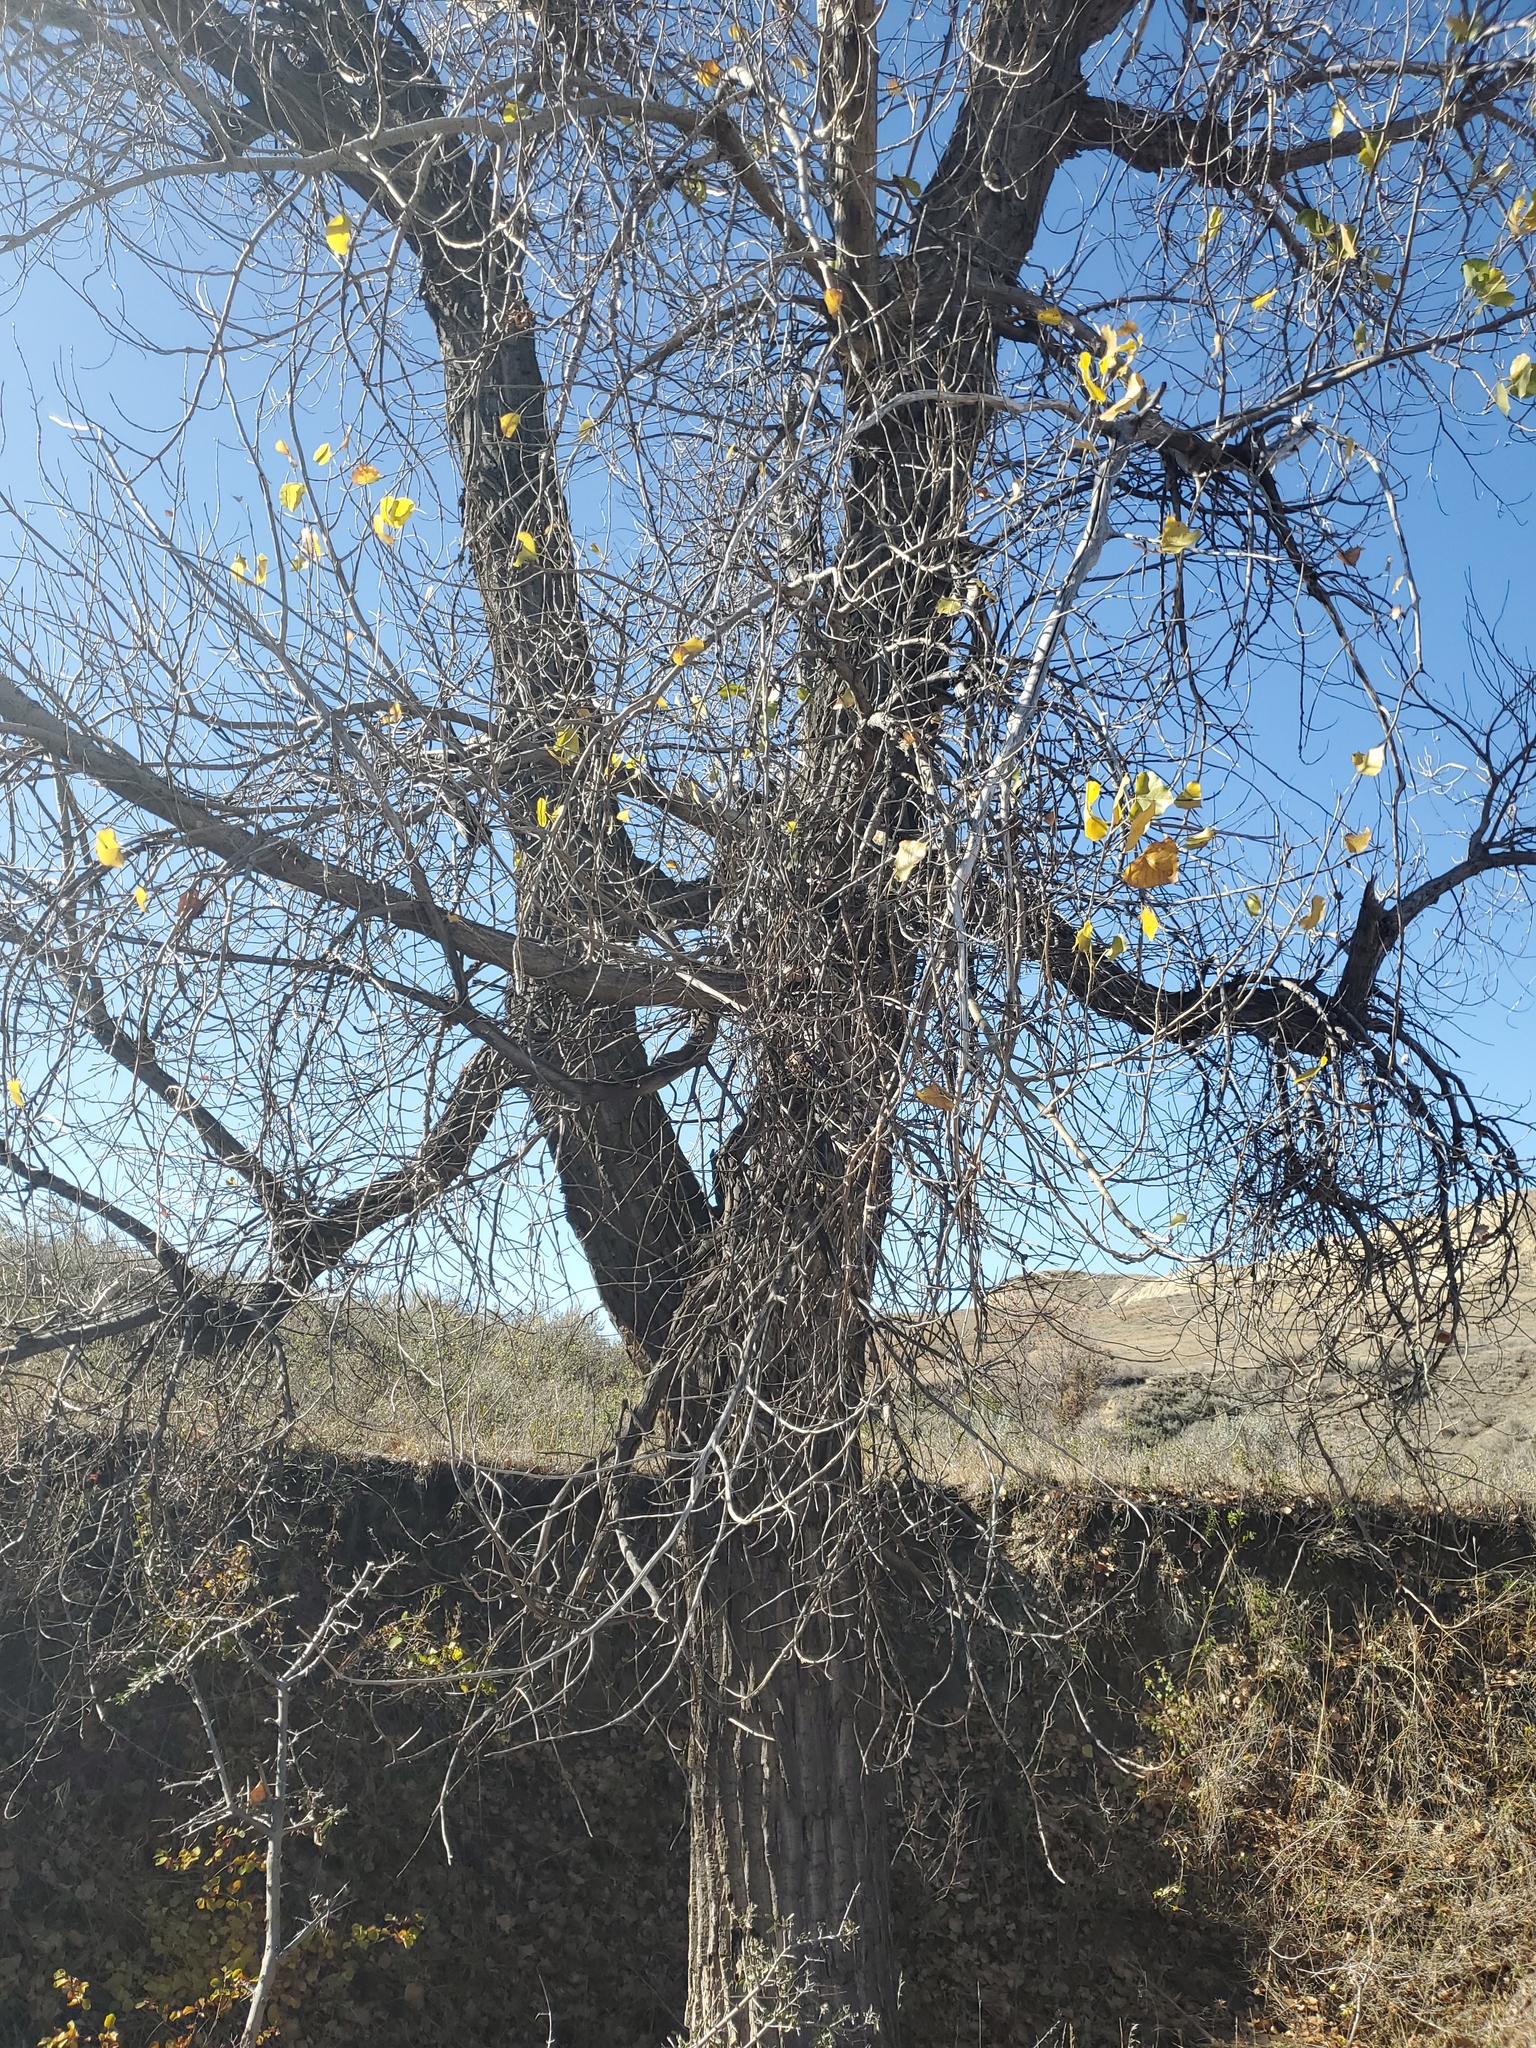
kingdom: Plantae
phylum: Tracheophyta
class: Magnoliopsida
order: Malpighiales
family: Salicaceae
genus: Populus
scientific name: Populus deltoides
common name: Eastern cottonwood
